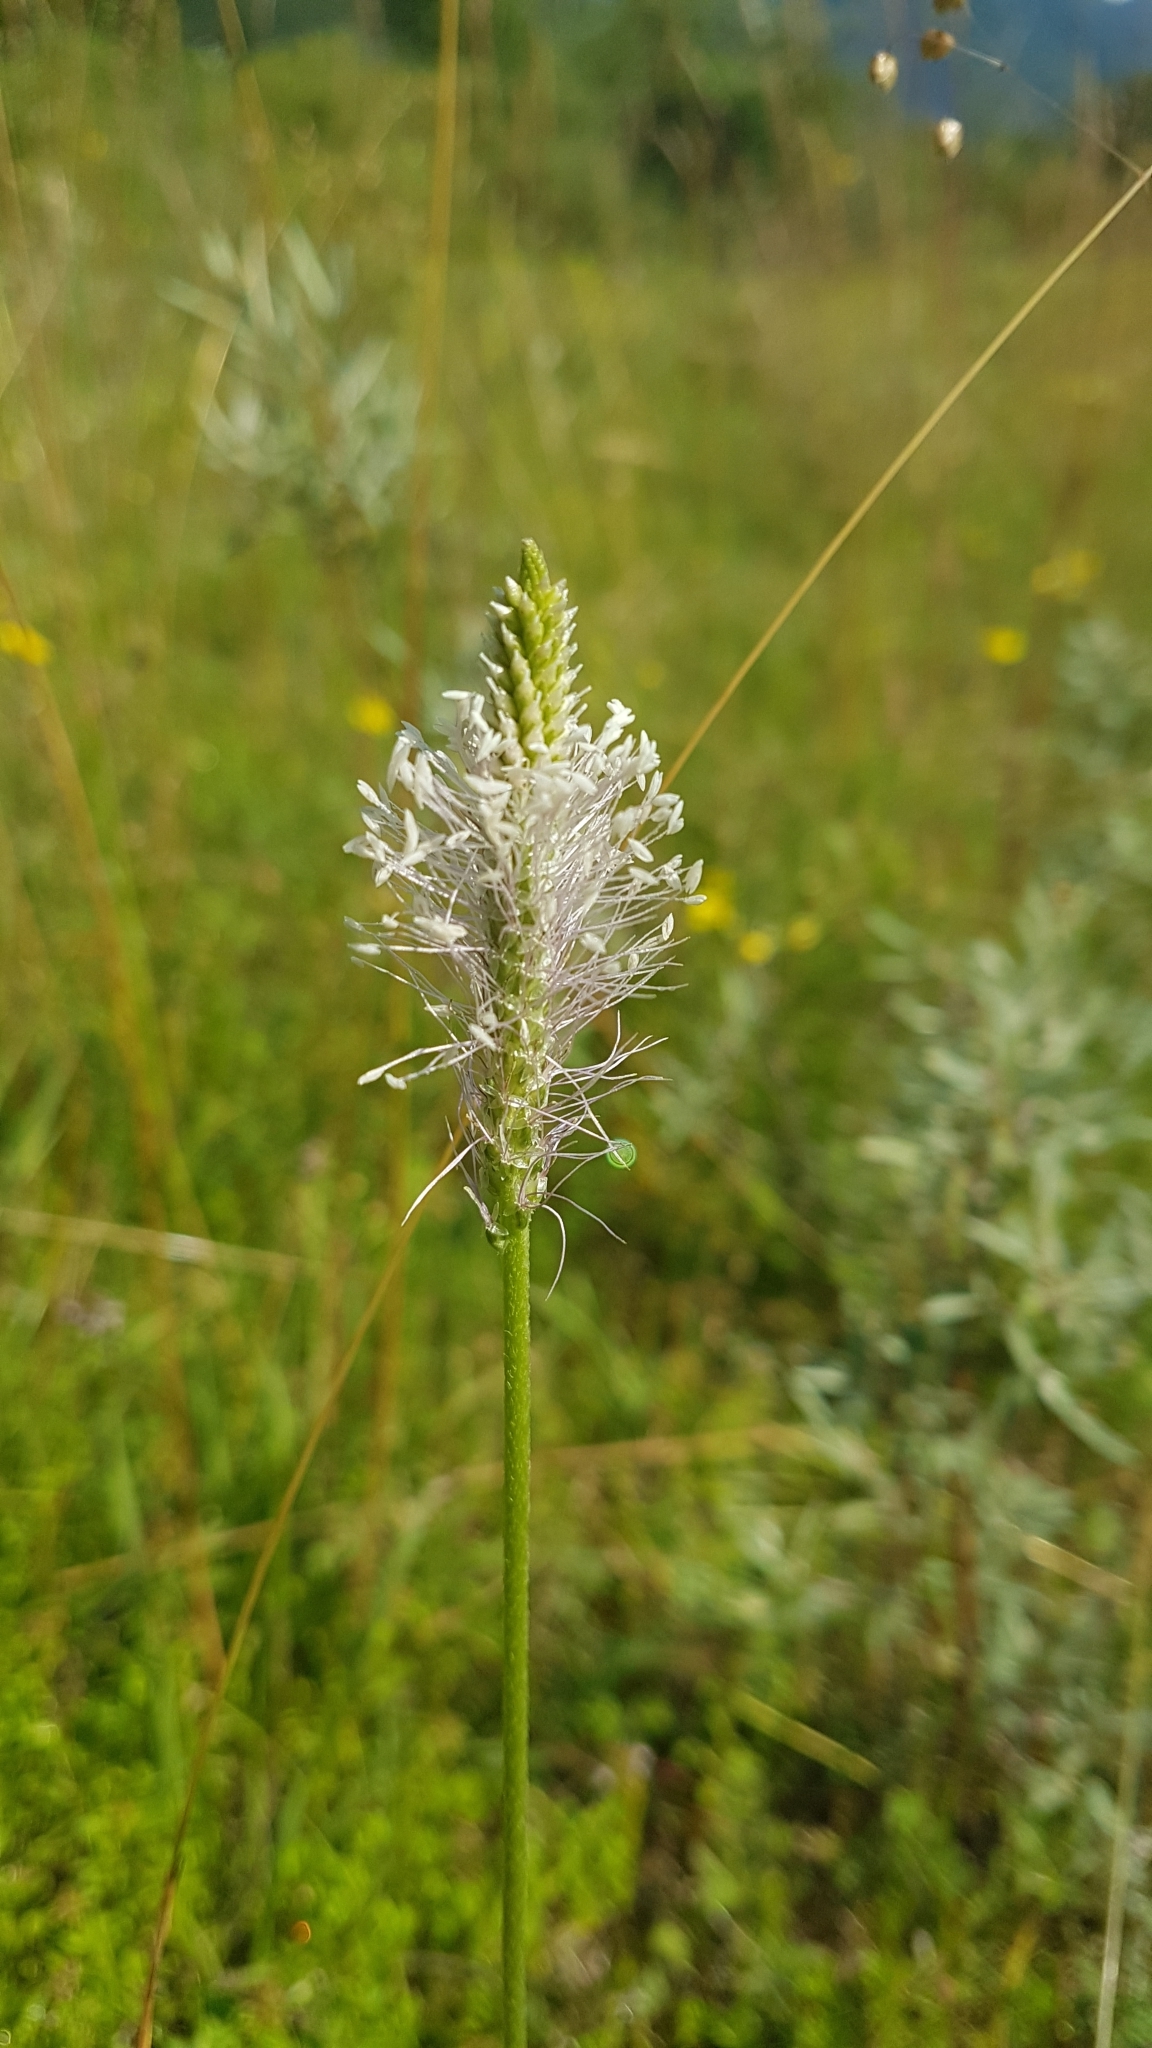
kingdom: Plantae
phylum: Tracheophyta
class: Magnoliopsida
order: Lamiales
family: Plantaginaceae
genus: Plantago
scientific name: Plantago media
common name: Hoary plantain
